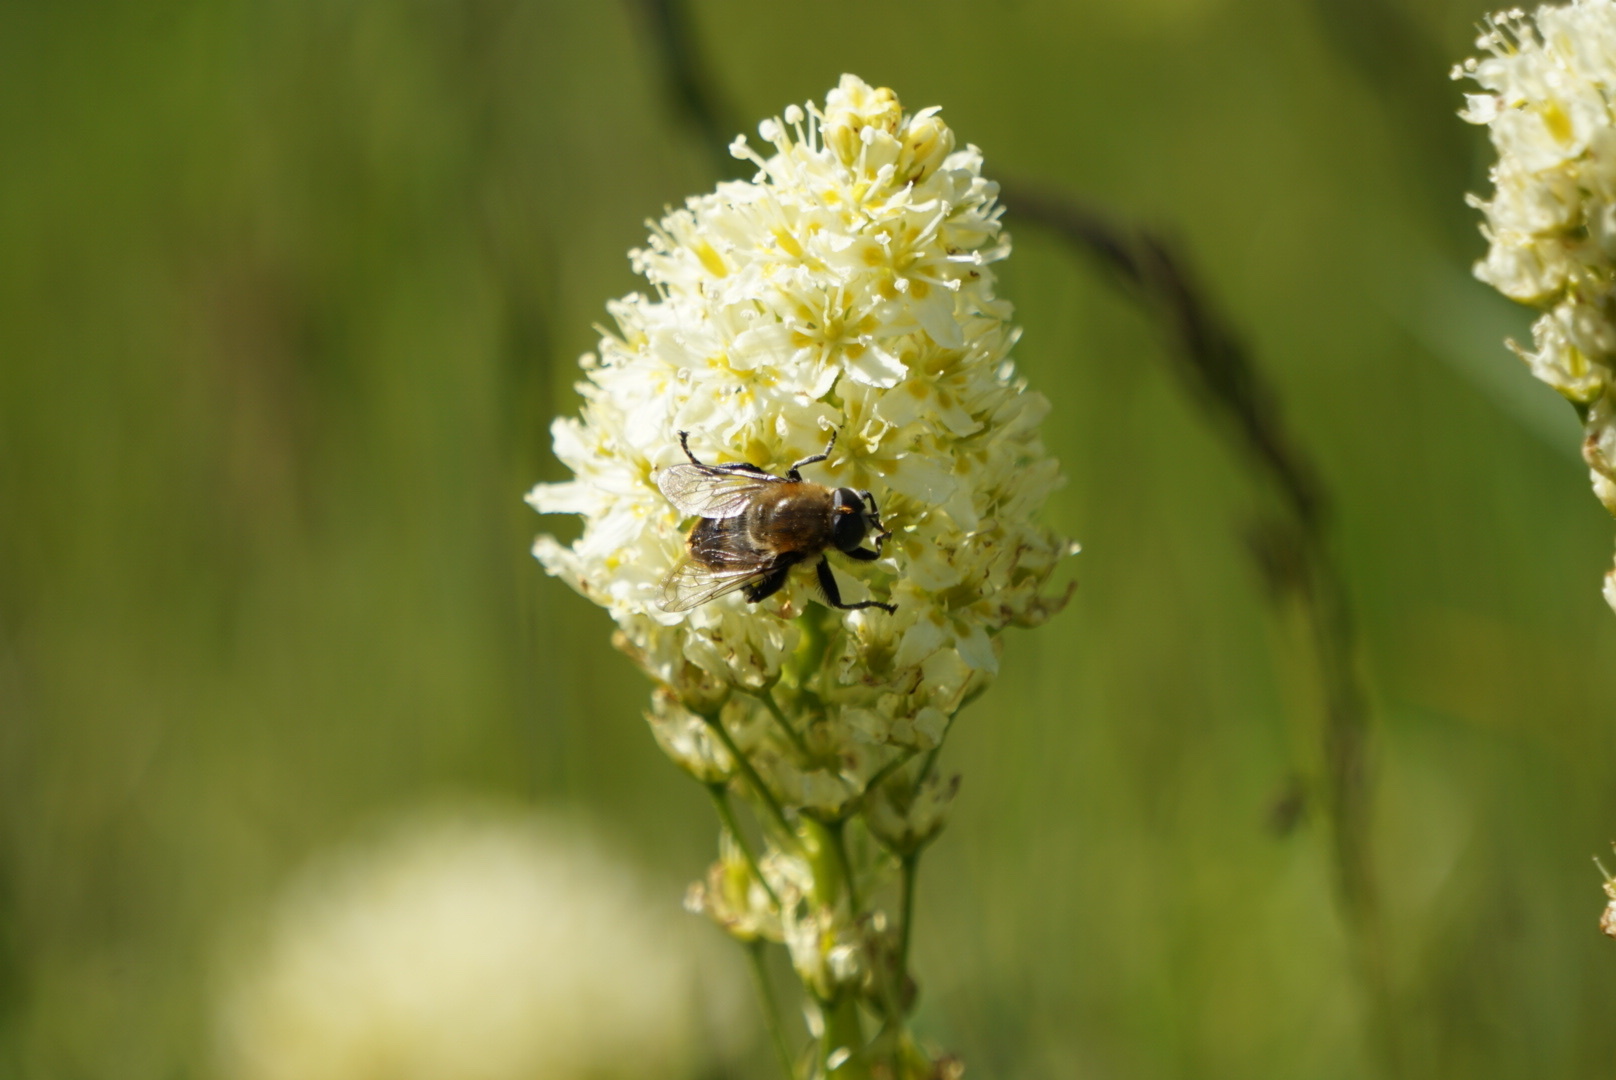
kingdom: Animalia
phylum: Arthropoda
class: Insecta
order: Diptera
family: Syrphidae
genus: Merodon
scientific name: Merodon equestris
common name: Greater bulb-fly
